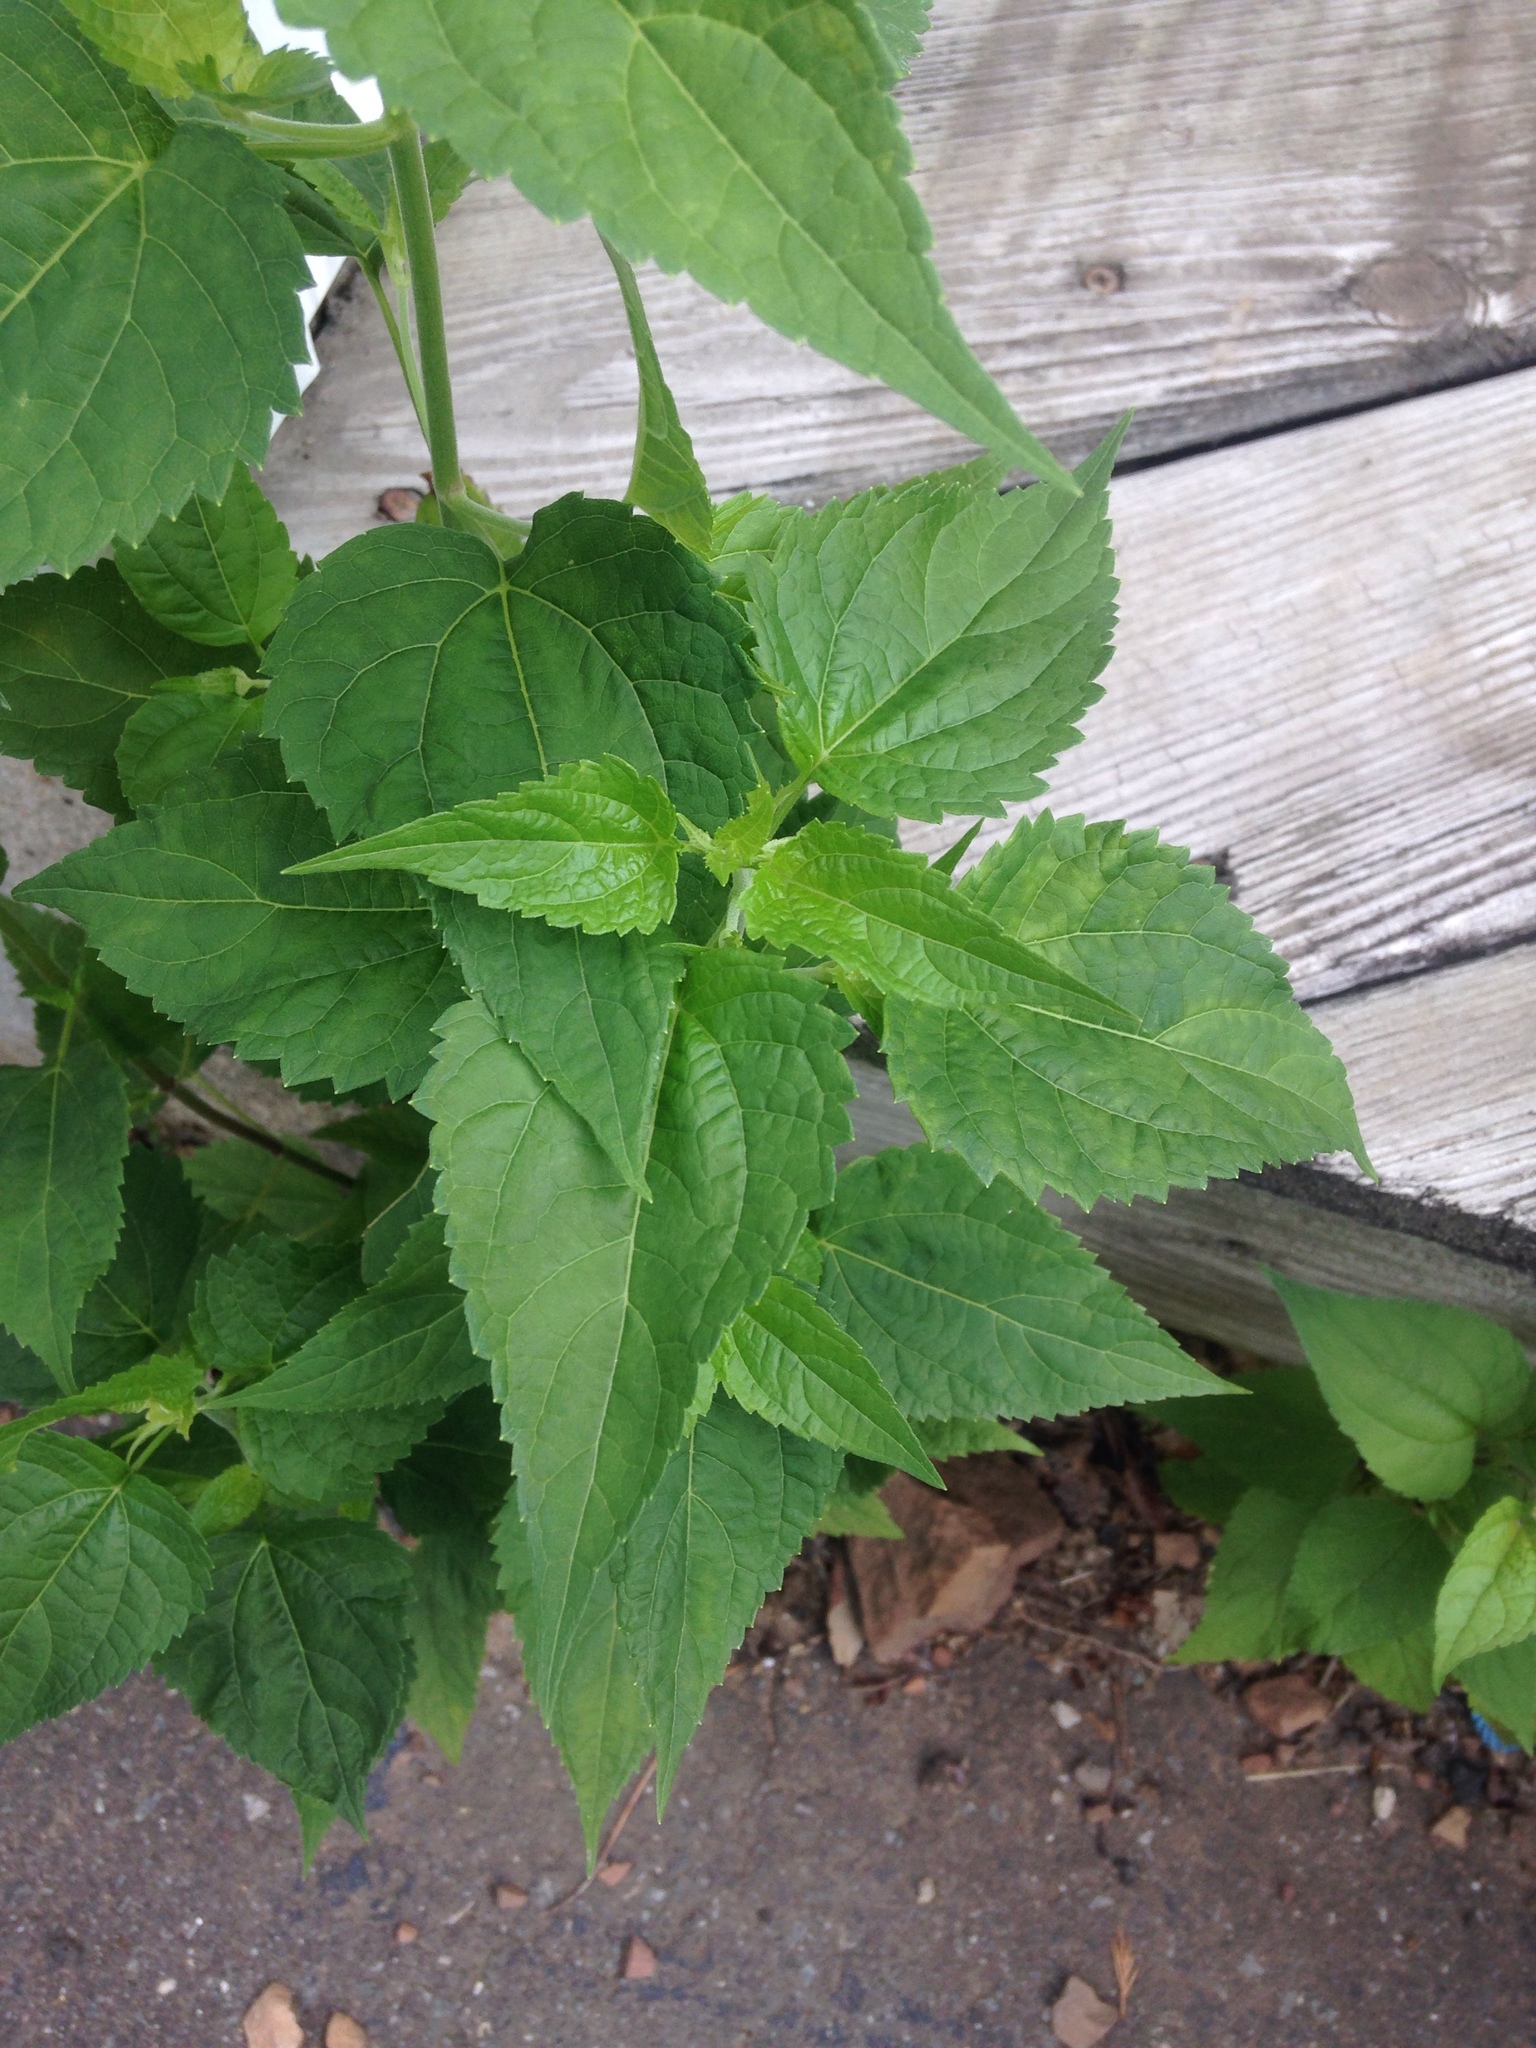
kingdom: Plantae
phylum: Tracheophyta
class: Magnoliopsida
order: Asterales
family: Asteraceae
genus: Ageratina
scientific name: Ageratina altissima
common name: White snakeroot
